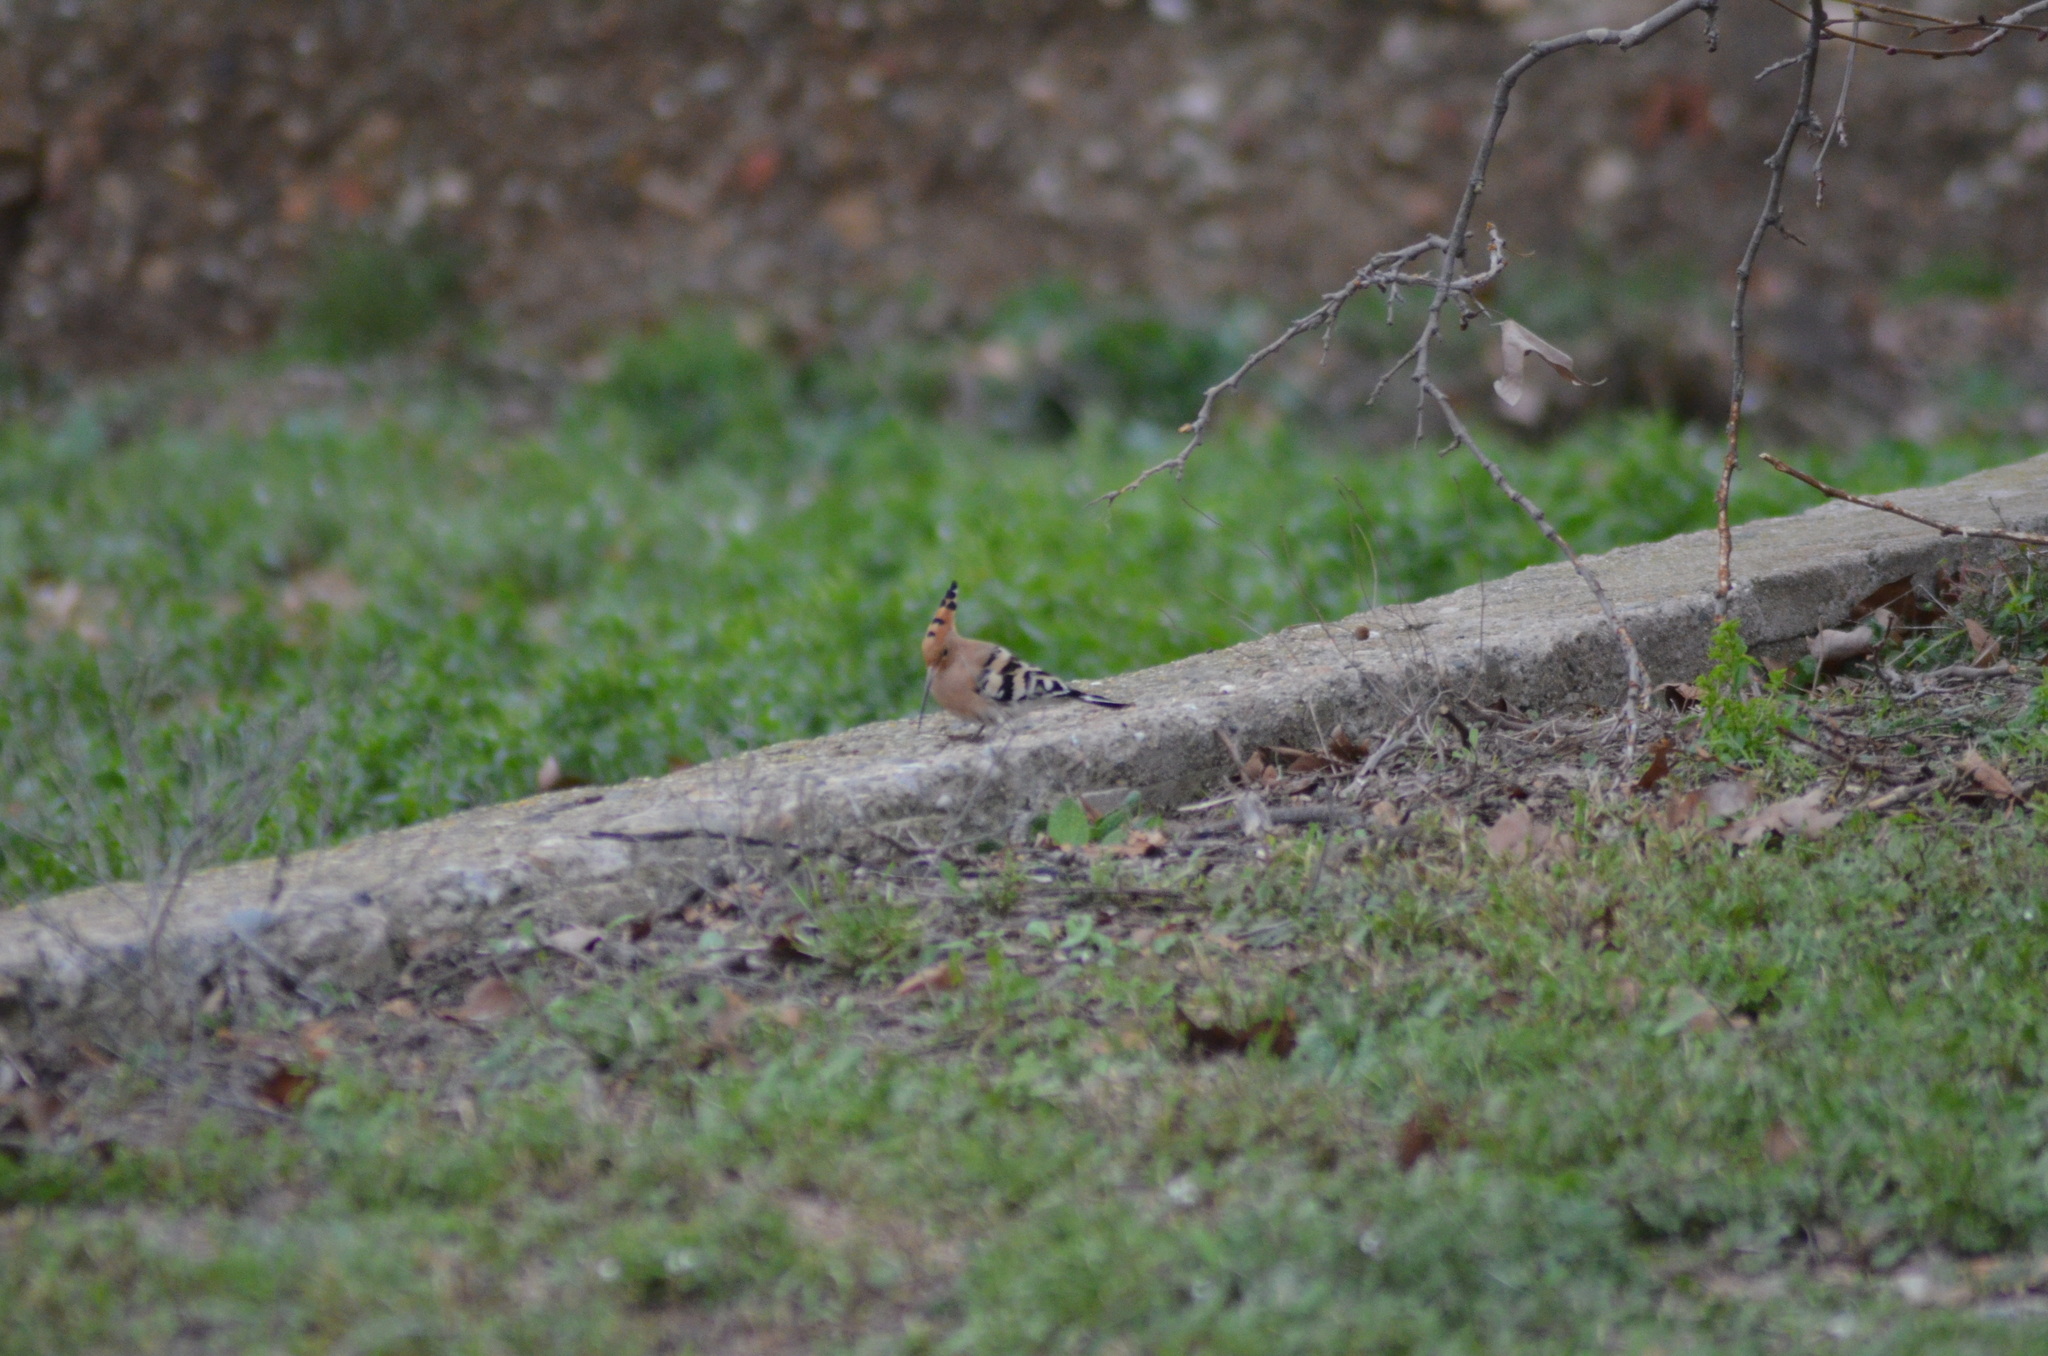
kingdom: Animalia
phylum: Chordata
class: Aves
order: Bucerotiformes
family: Upupidae
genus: Upupa
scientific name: Upupa epops
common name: Eurasian hoopoe
